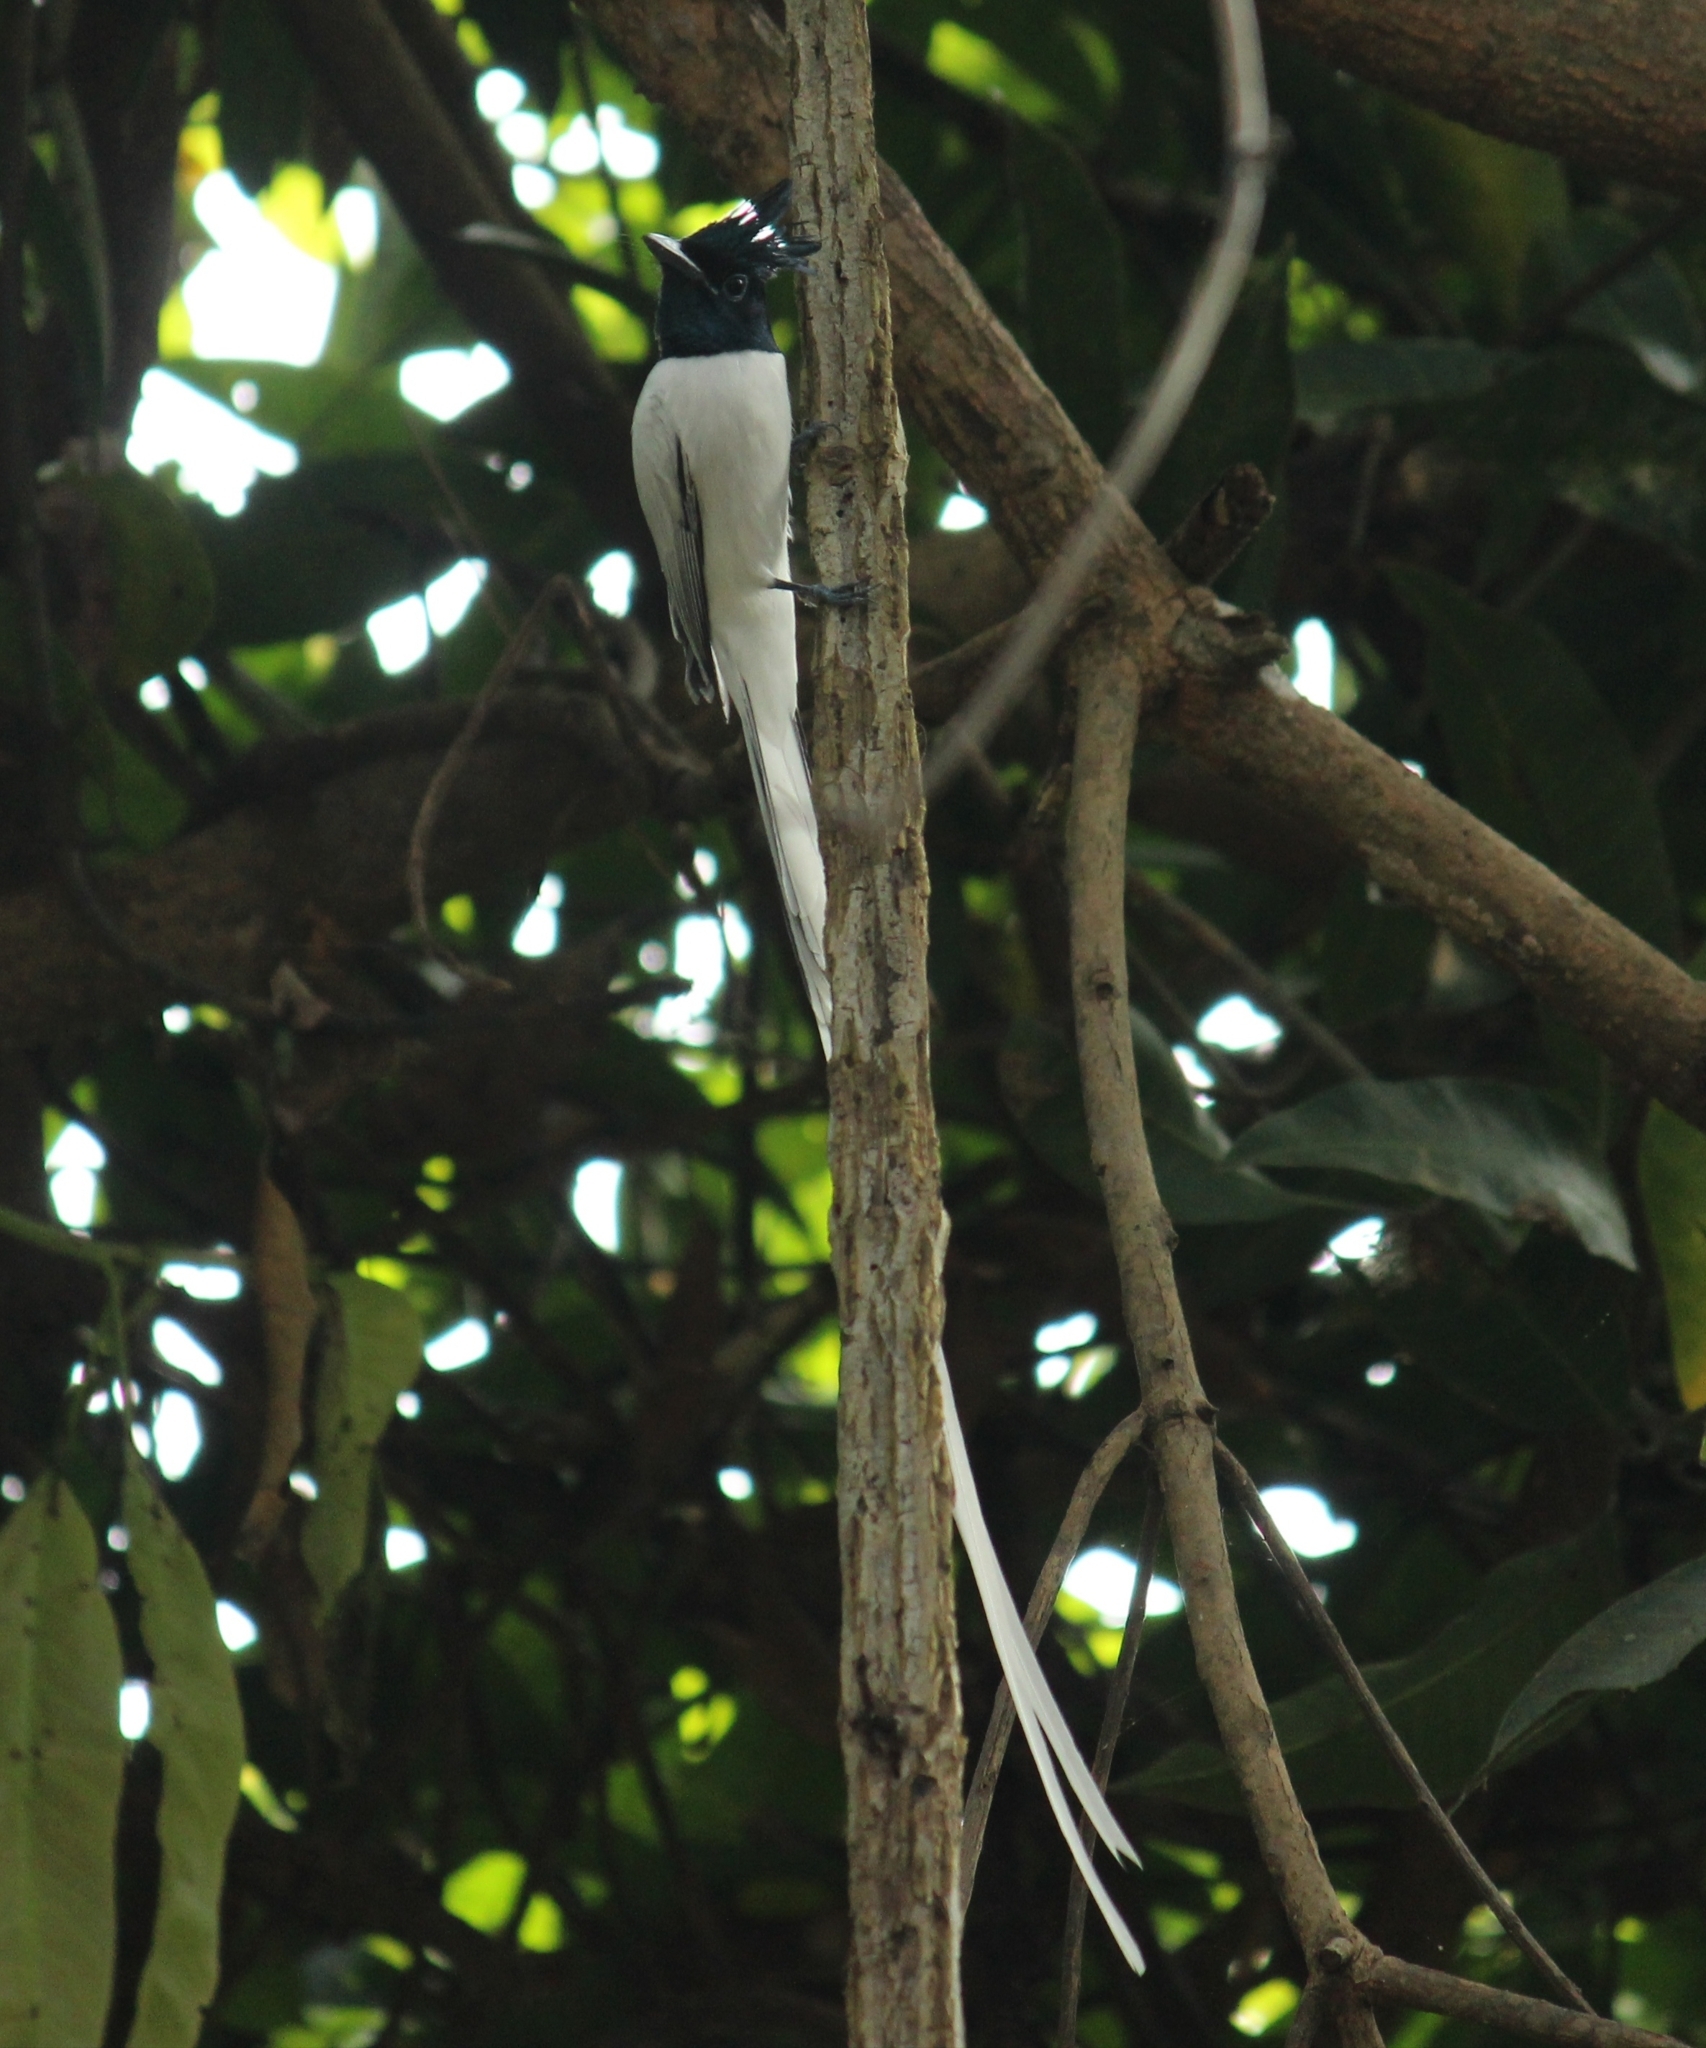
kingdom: Animalia
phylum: Chordata
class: Aves
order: Passeriformes
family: Monarchidae
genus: Terpsiphone
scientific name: Terpsiphone paradisi
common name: Indian paradise flycatcher
